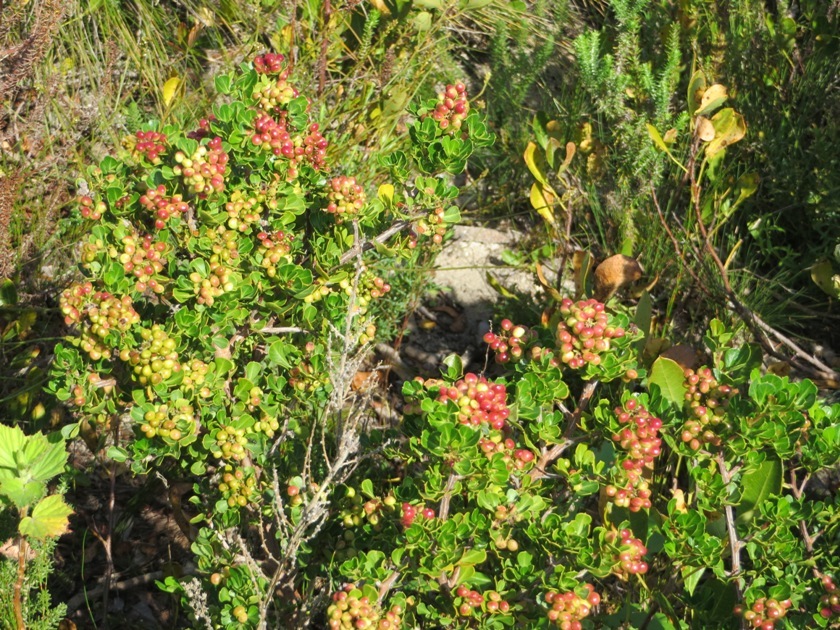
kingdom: Plantae
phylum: Tracheophyta
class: Magnoliopsida
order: Sapindales
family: Anacardiaceae
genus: Searsia
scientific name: Searsia glauca
